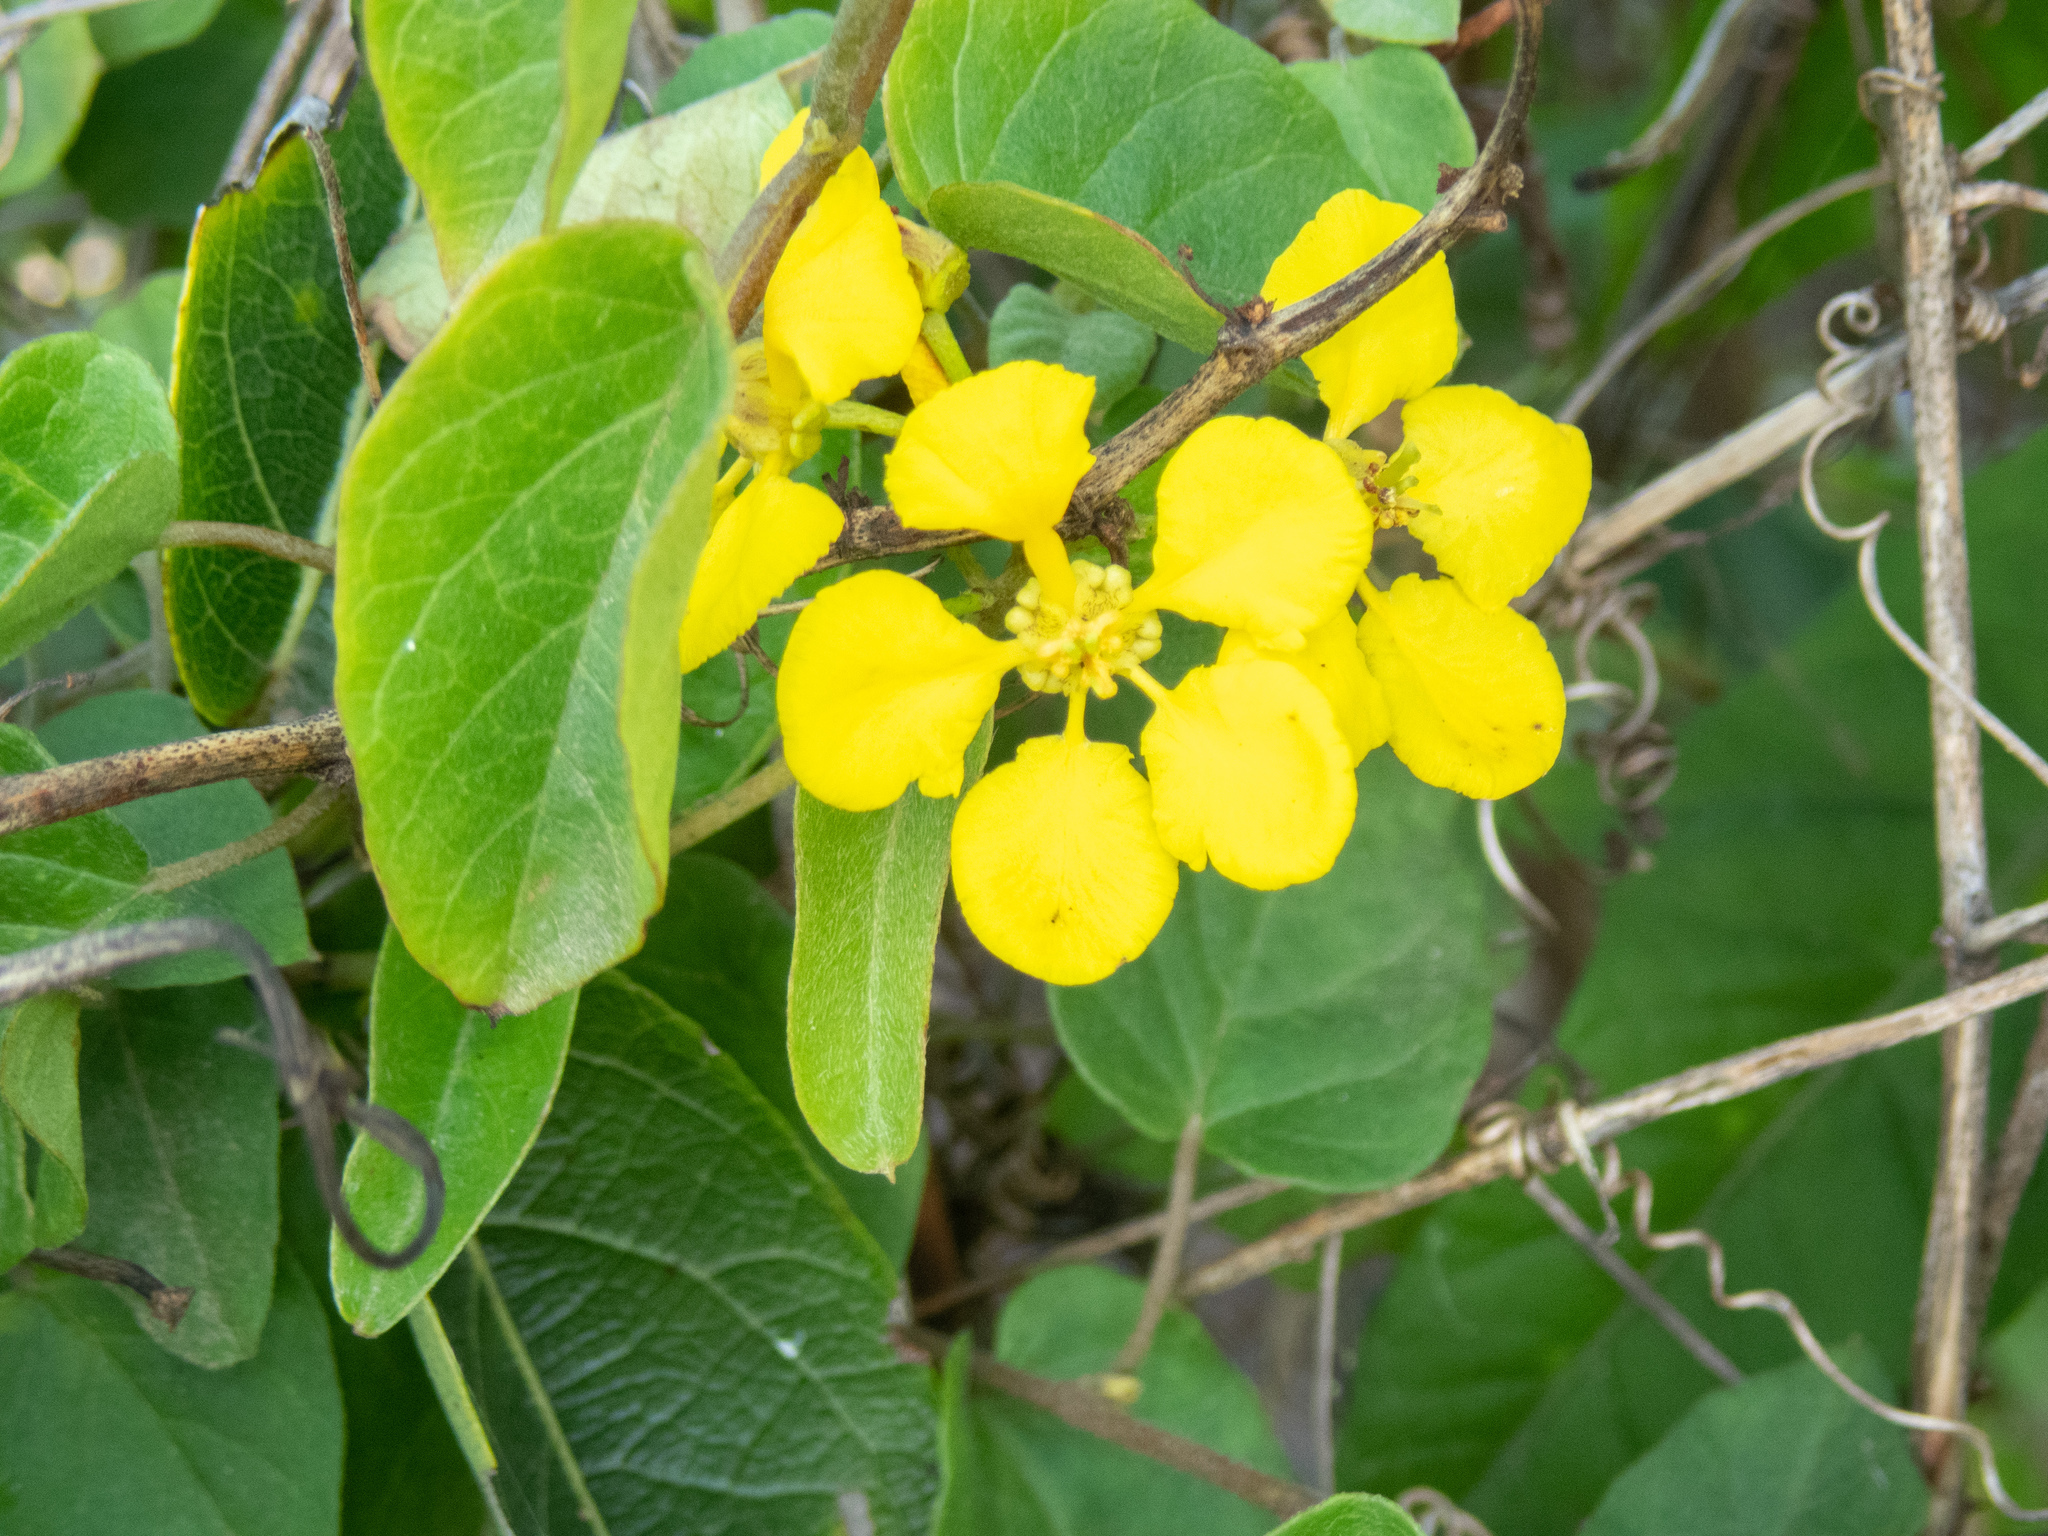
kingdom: Plantae
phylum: Tracheophyta
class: Magnoliopsida
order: Malpighiales
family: Malpighiaceae
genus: Stigmaphyllon
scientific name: Stigmaphyllon emarginatum
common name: Monarch amazonvine
